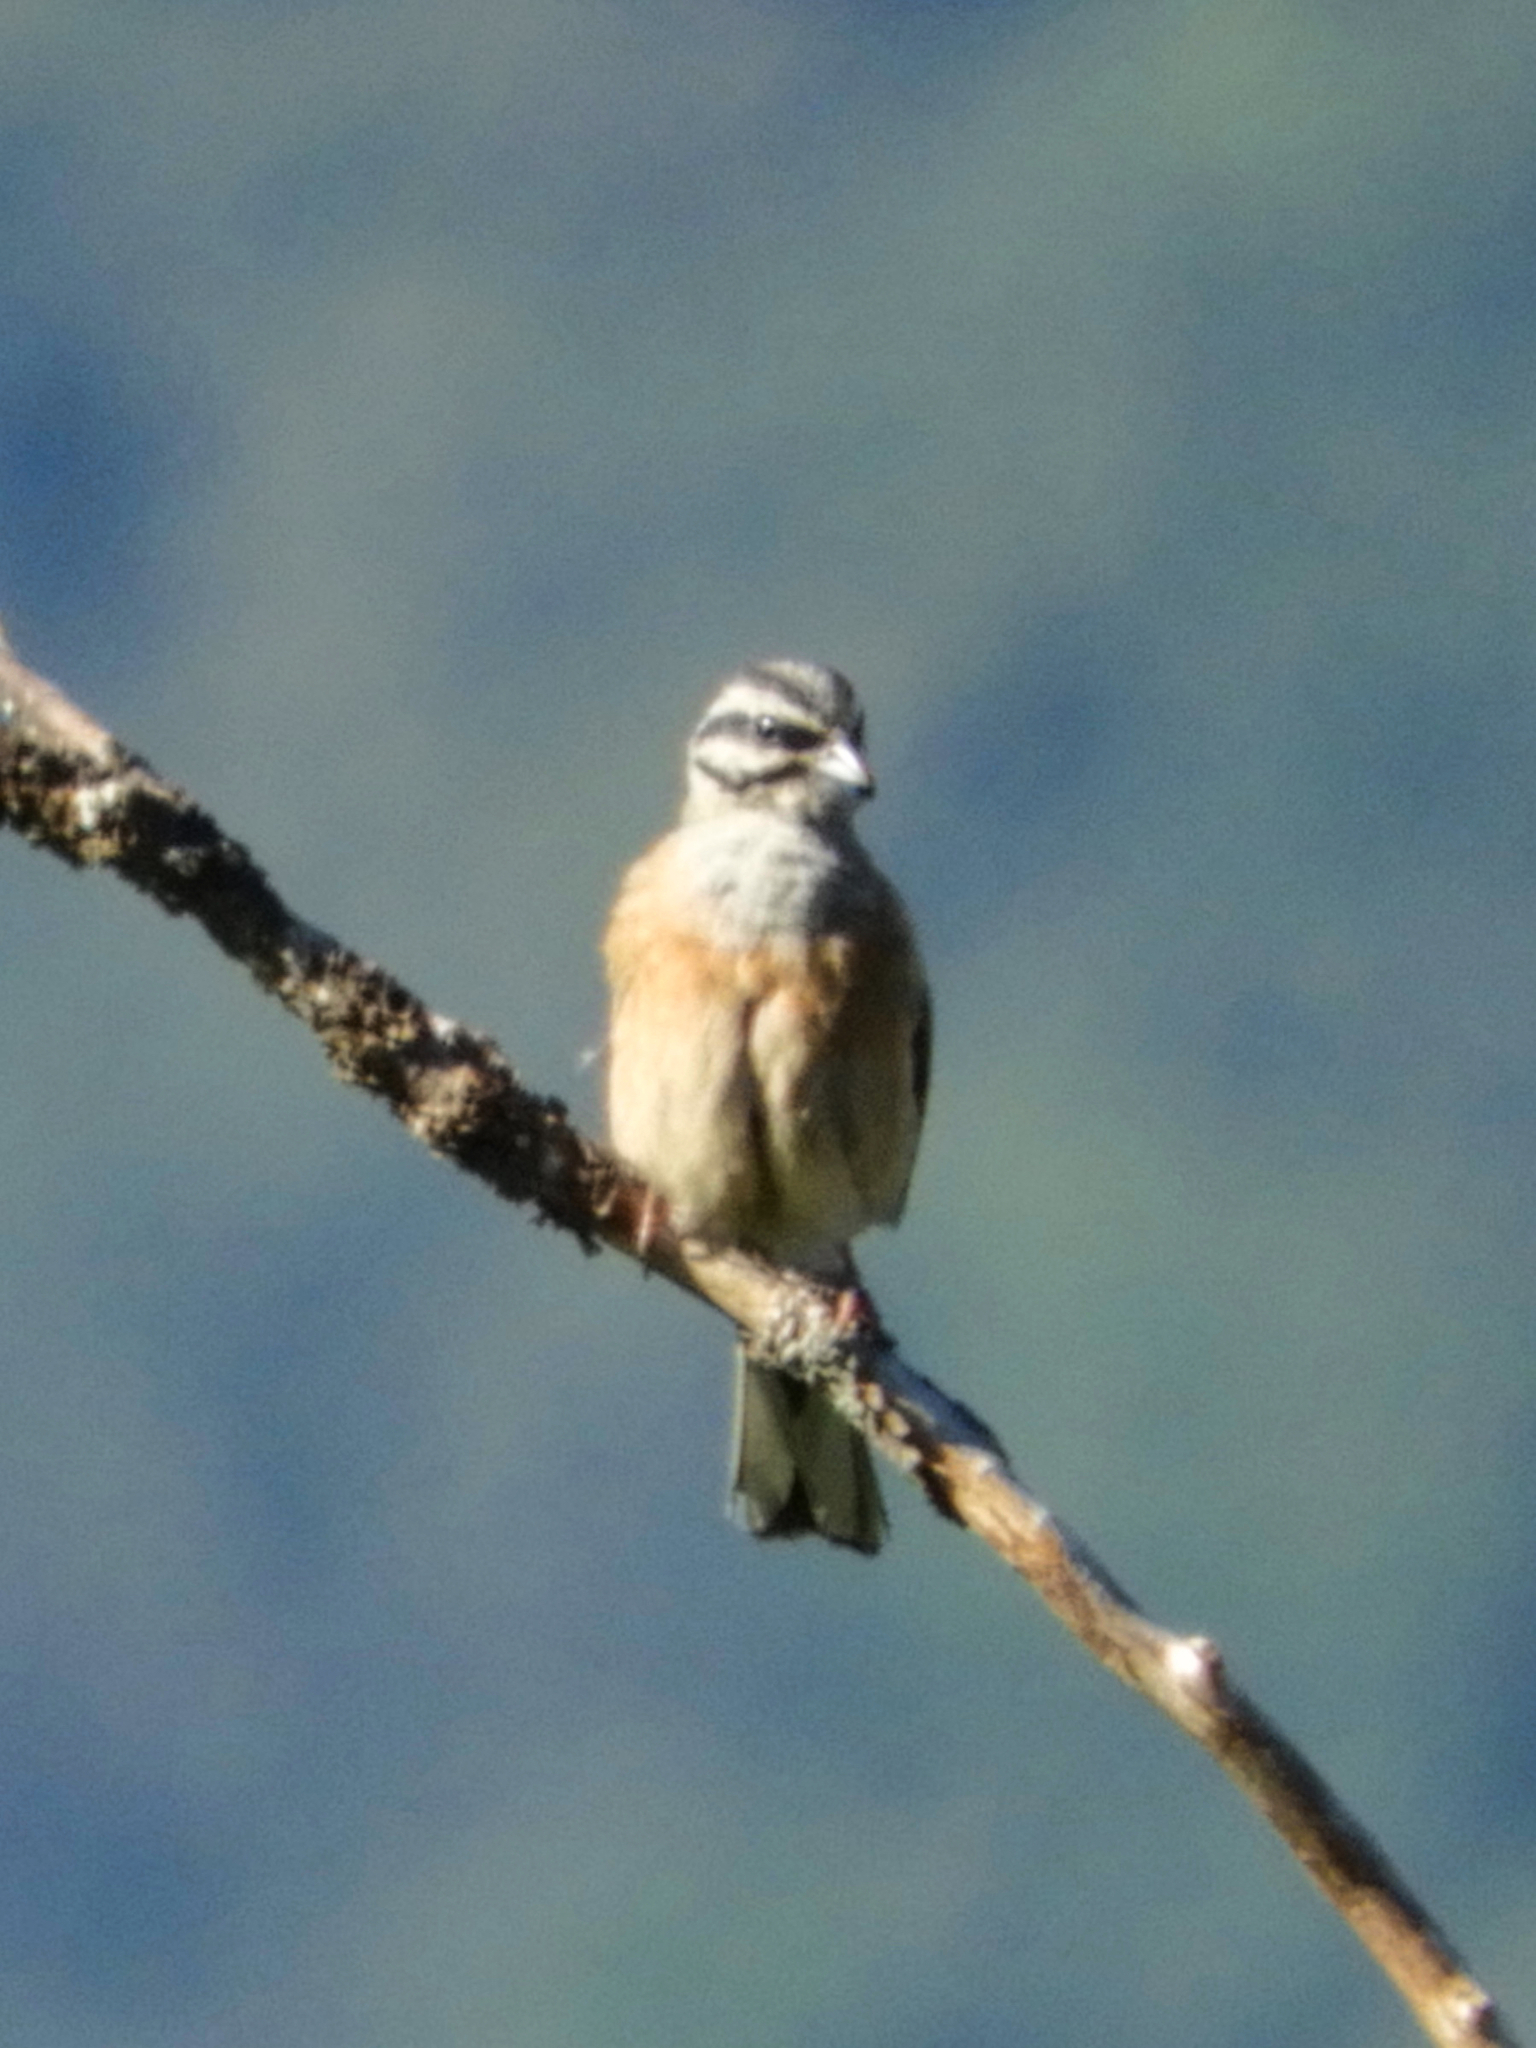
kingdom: Animalia
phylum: Chordata
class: Aves
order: Passeriformes
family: Emberizidae
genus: Emberiza
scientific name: Emberiza cia
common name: Rock bunting
